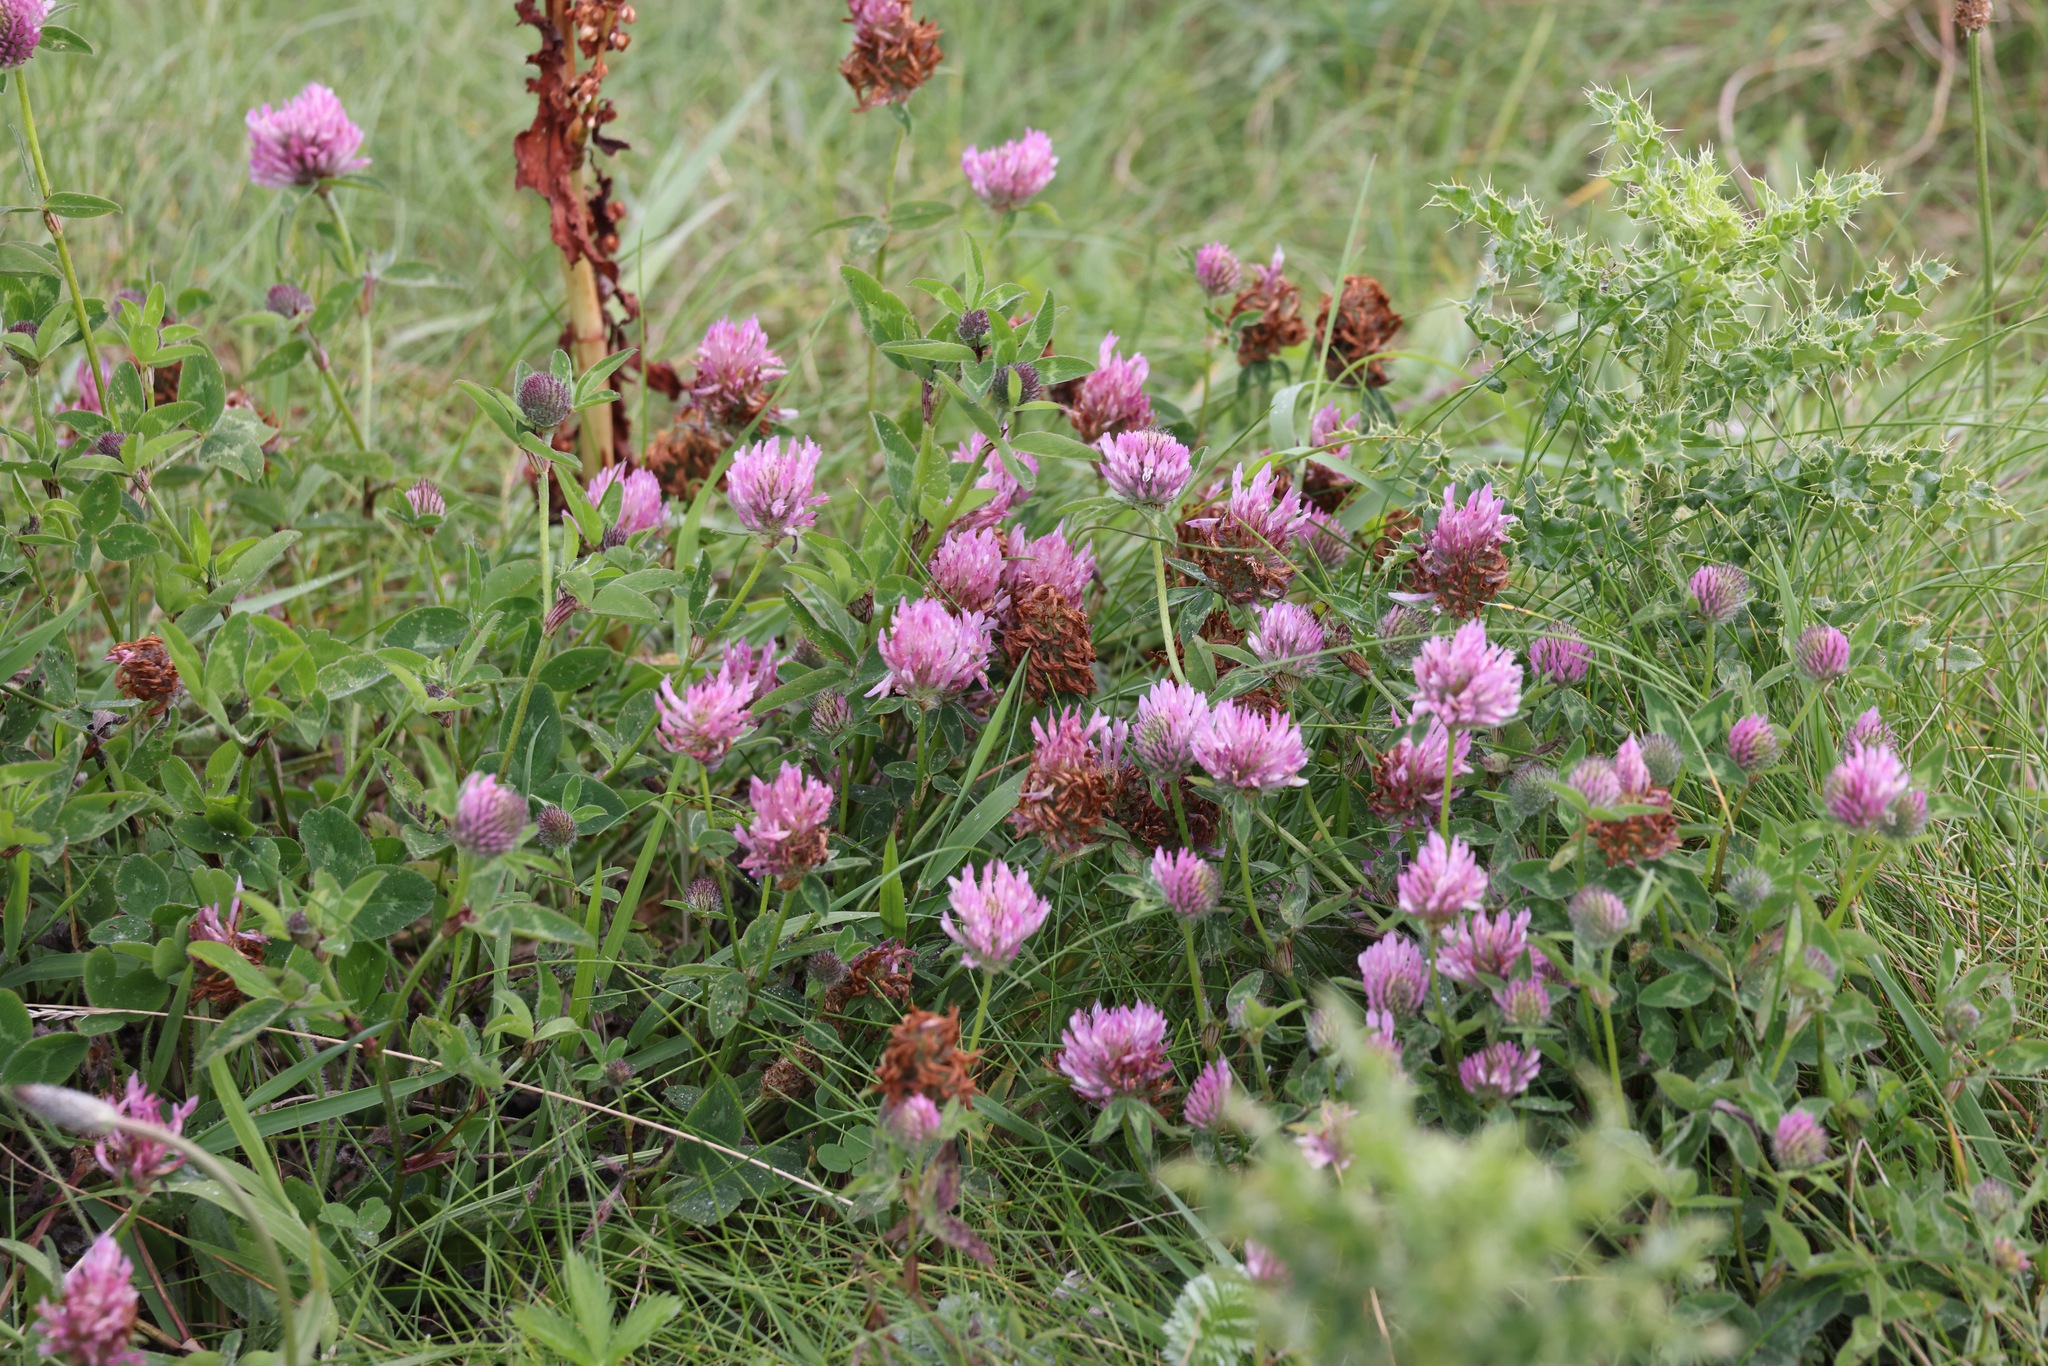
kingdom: Plantae
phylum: Tracheophyta
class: Magnoliopsida
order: Fabales
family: Fabaceae
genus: Trifolium
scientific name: Trifolium pratense
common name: Red clover
